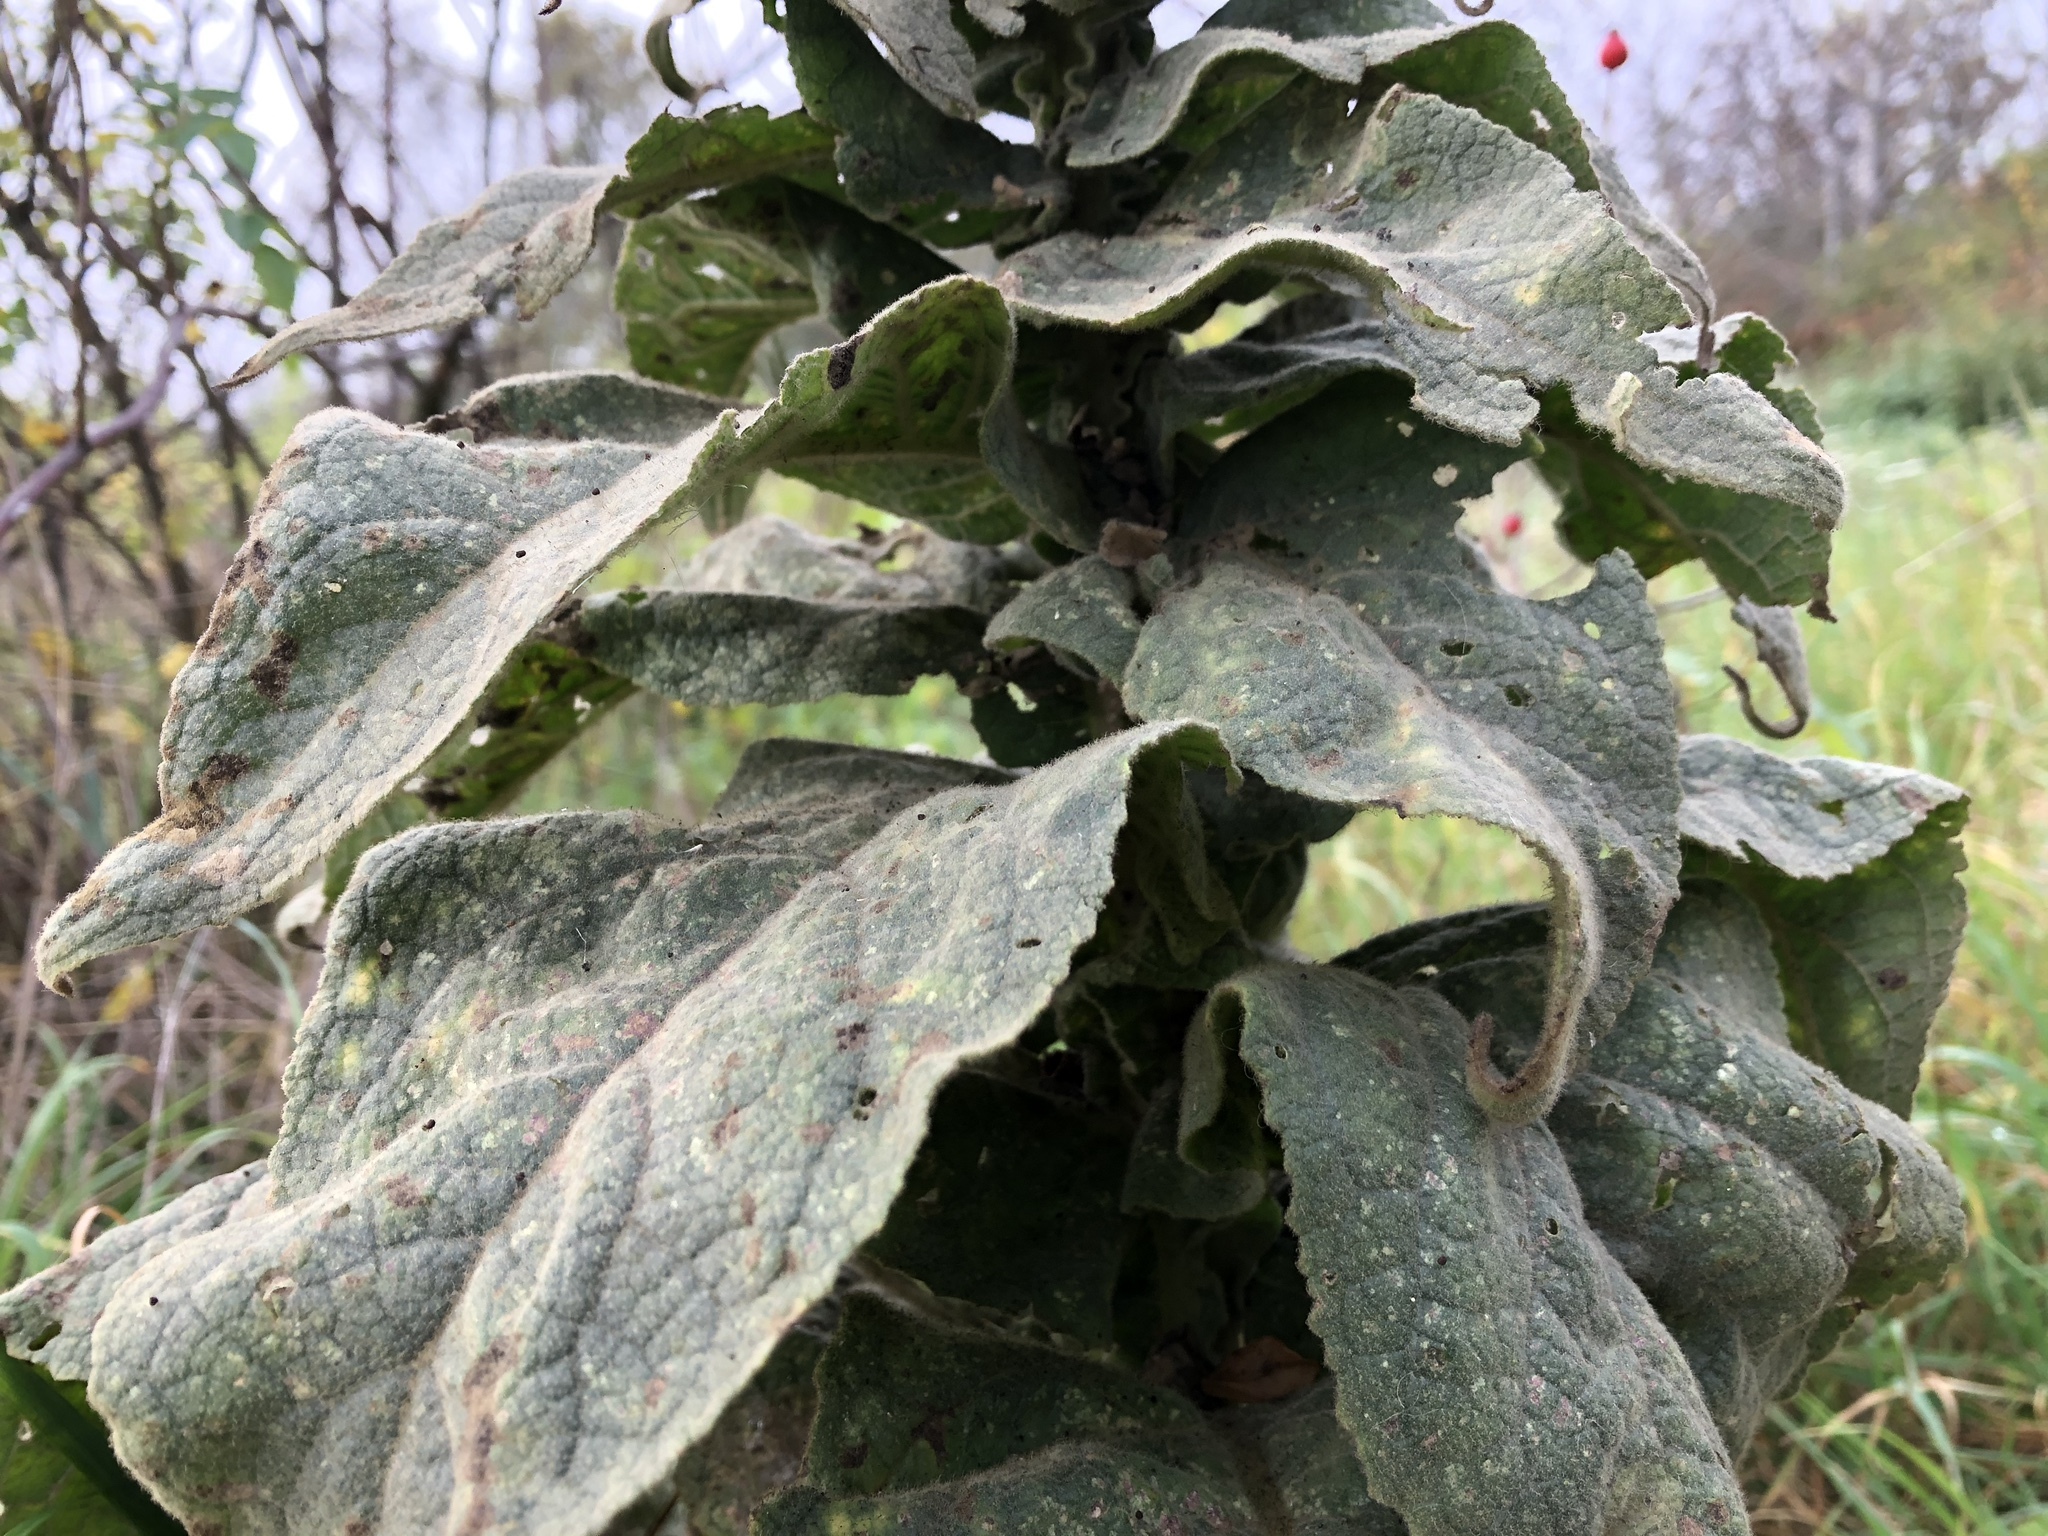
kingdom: Plantae
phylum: Tracheophyta
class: Magnoliopsida
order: Lamiales
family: Scrophulariaceae
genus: Verbascum
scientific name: Verbascum densiflorum
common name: Dense-flowered mullein
